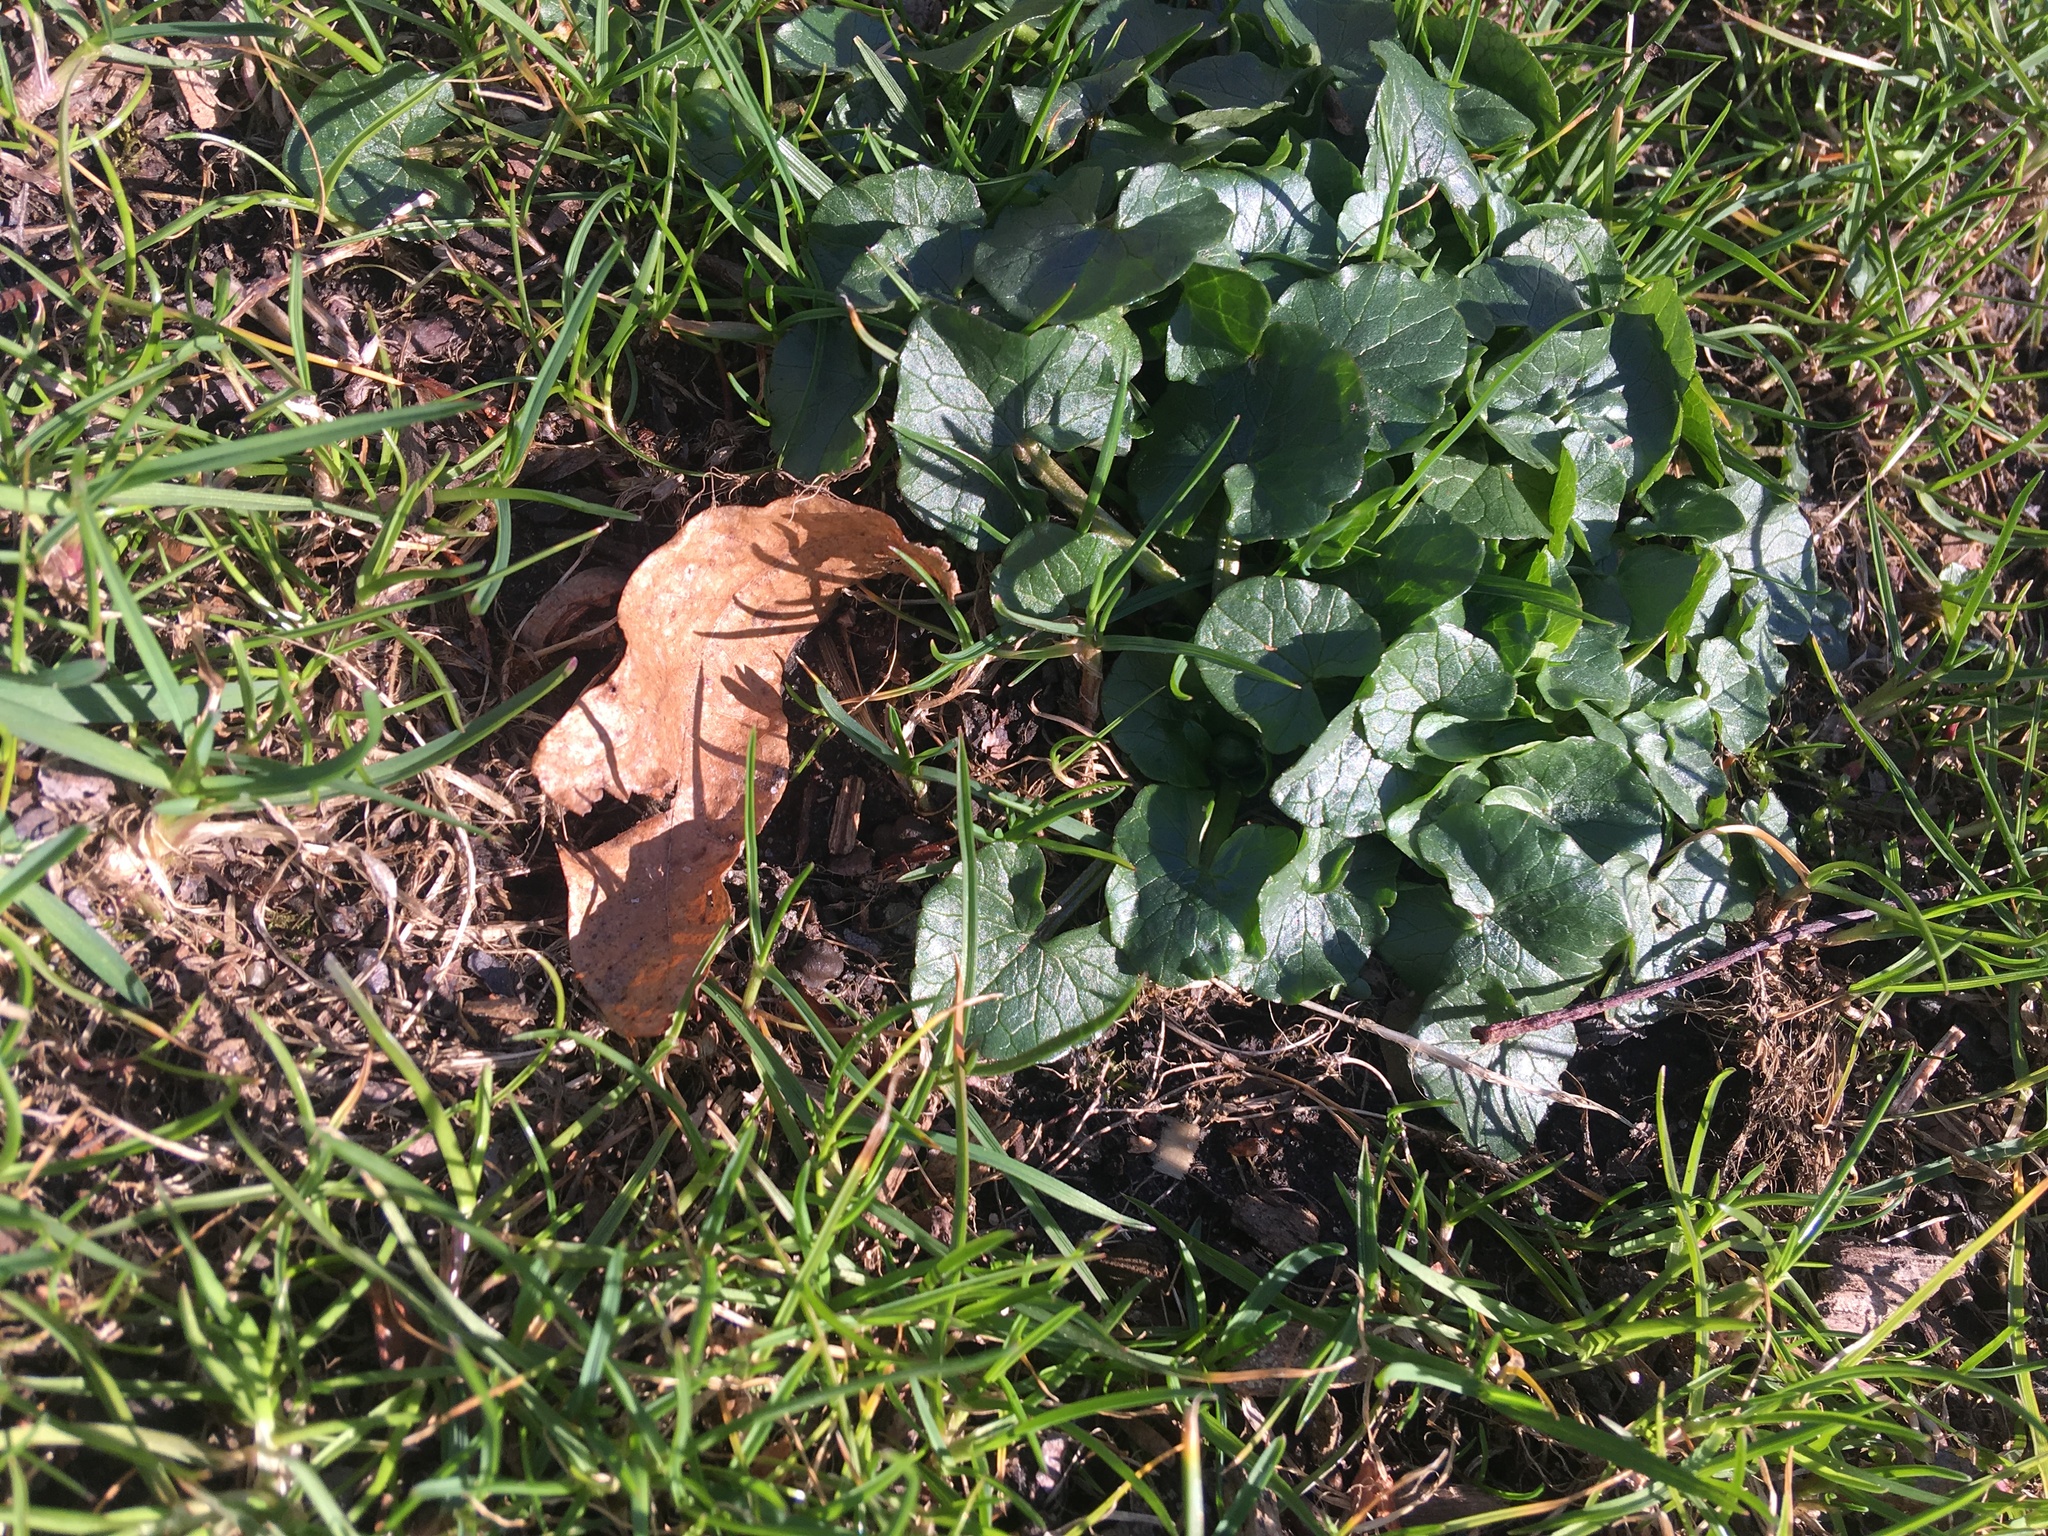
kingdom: Plantae
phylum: Tracheophyta
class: Magnoliopsida
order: Ranunculales
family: Ranunculaceae
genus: Ficaria
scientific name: Ficaria verna
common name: Lesser celandine
